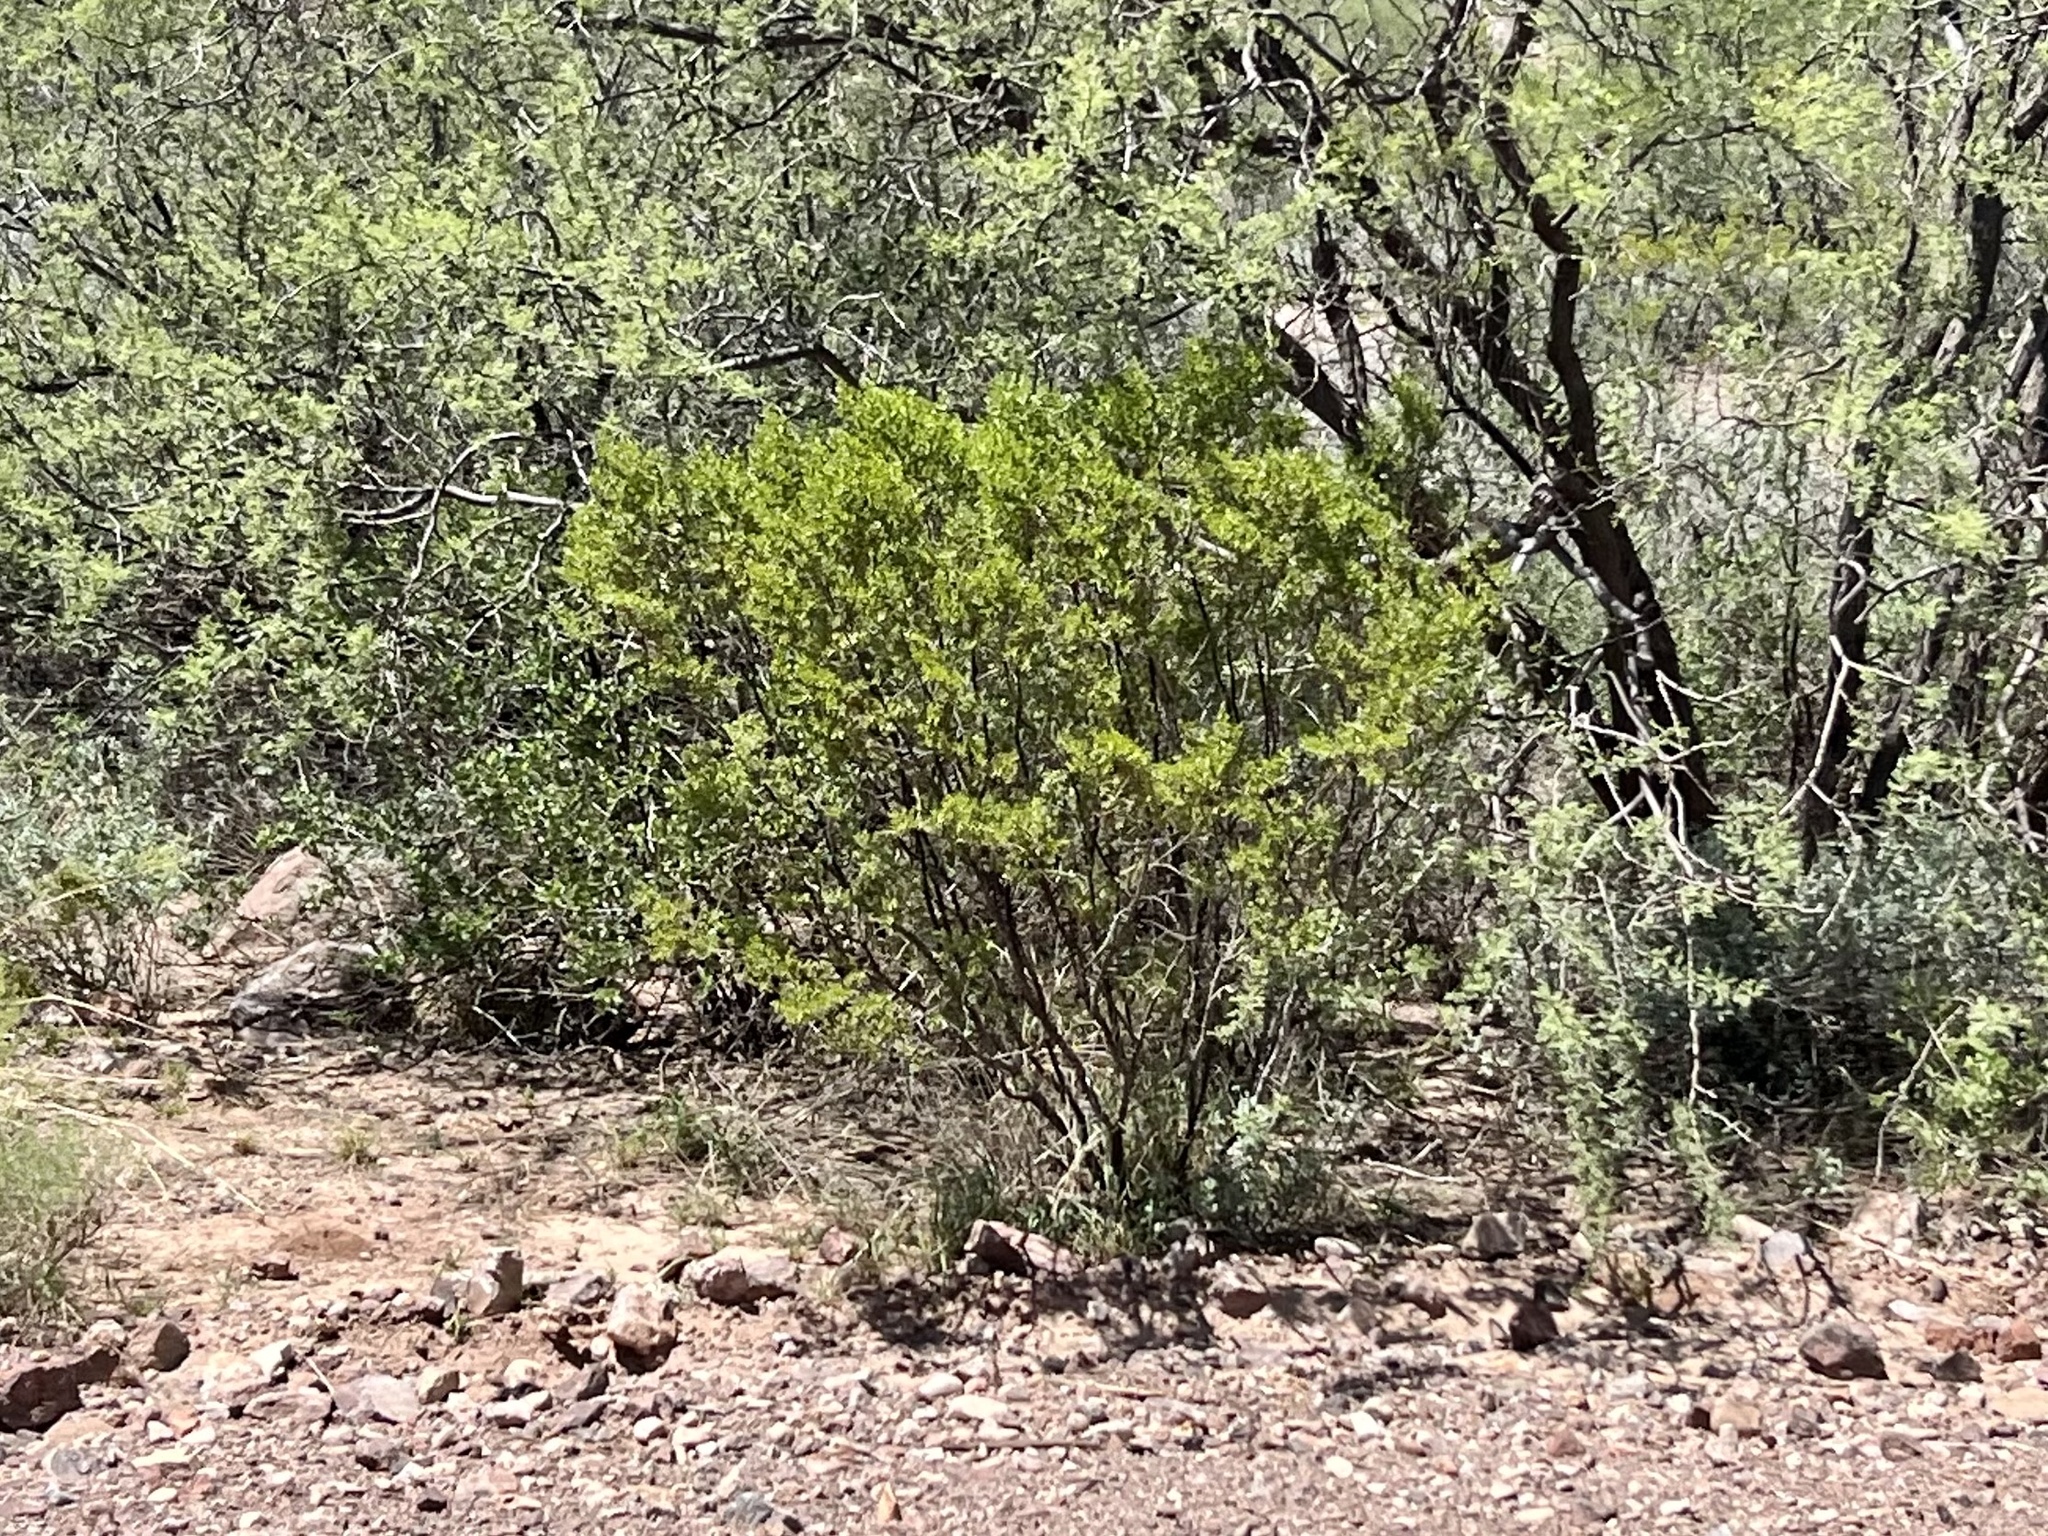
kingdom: Plantae
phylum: Tracheophyta
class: Magnoliopsida
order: Zygophyllales
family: Zygophyllaceae
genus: Larrea
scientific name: Larrea tridentata
